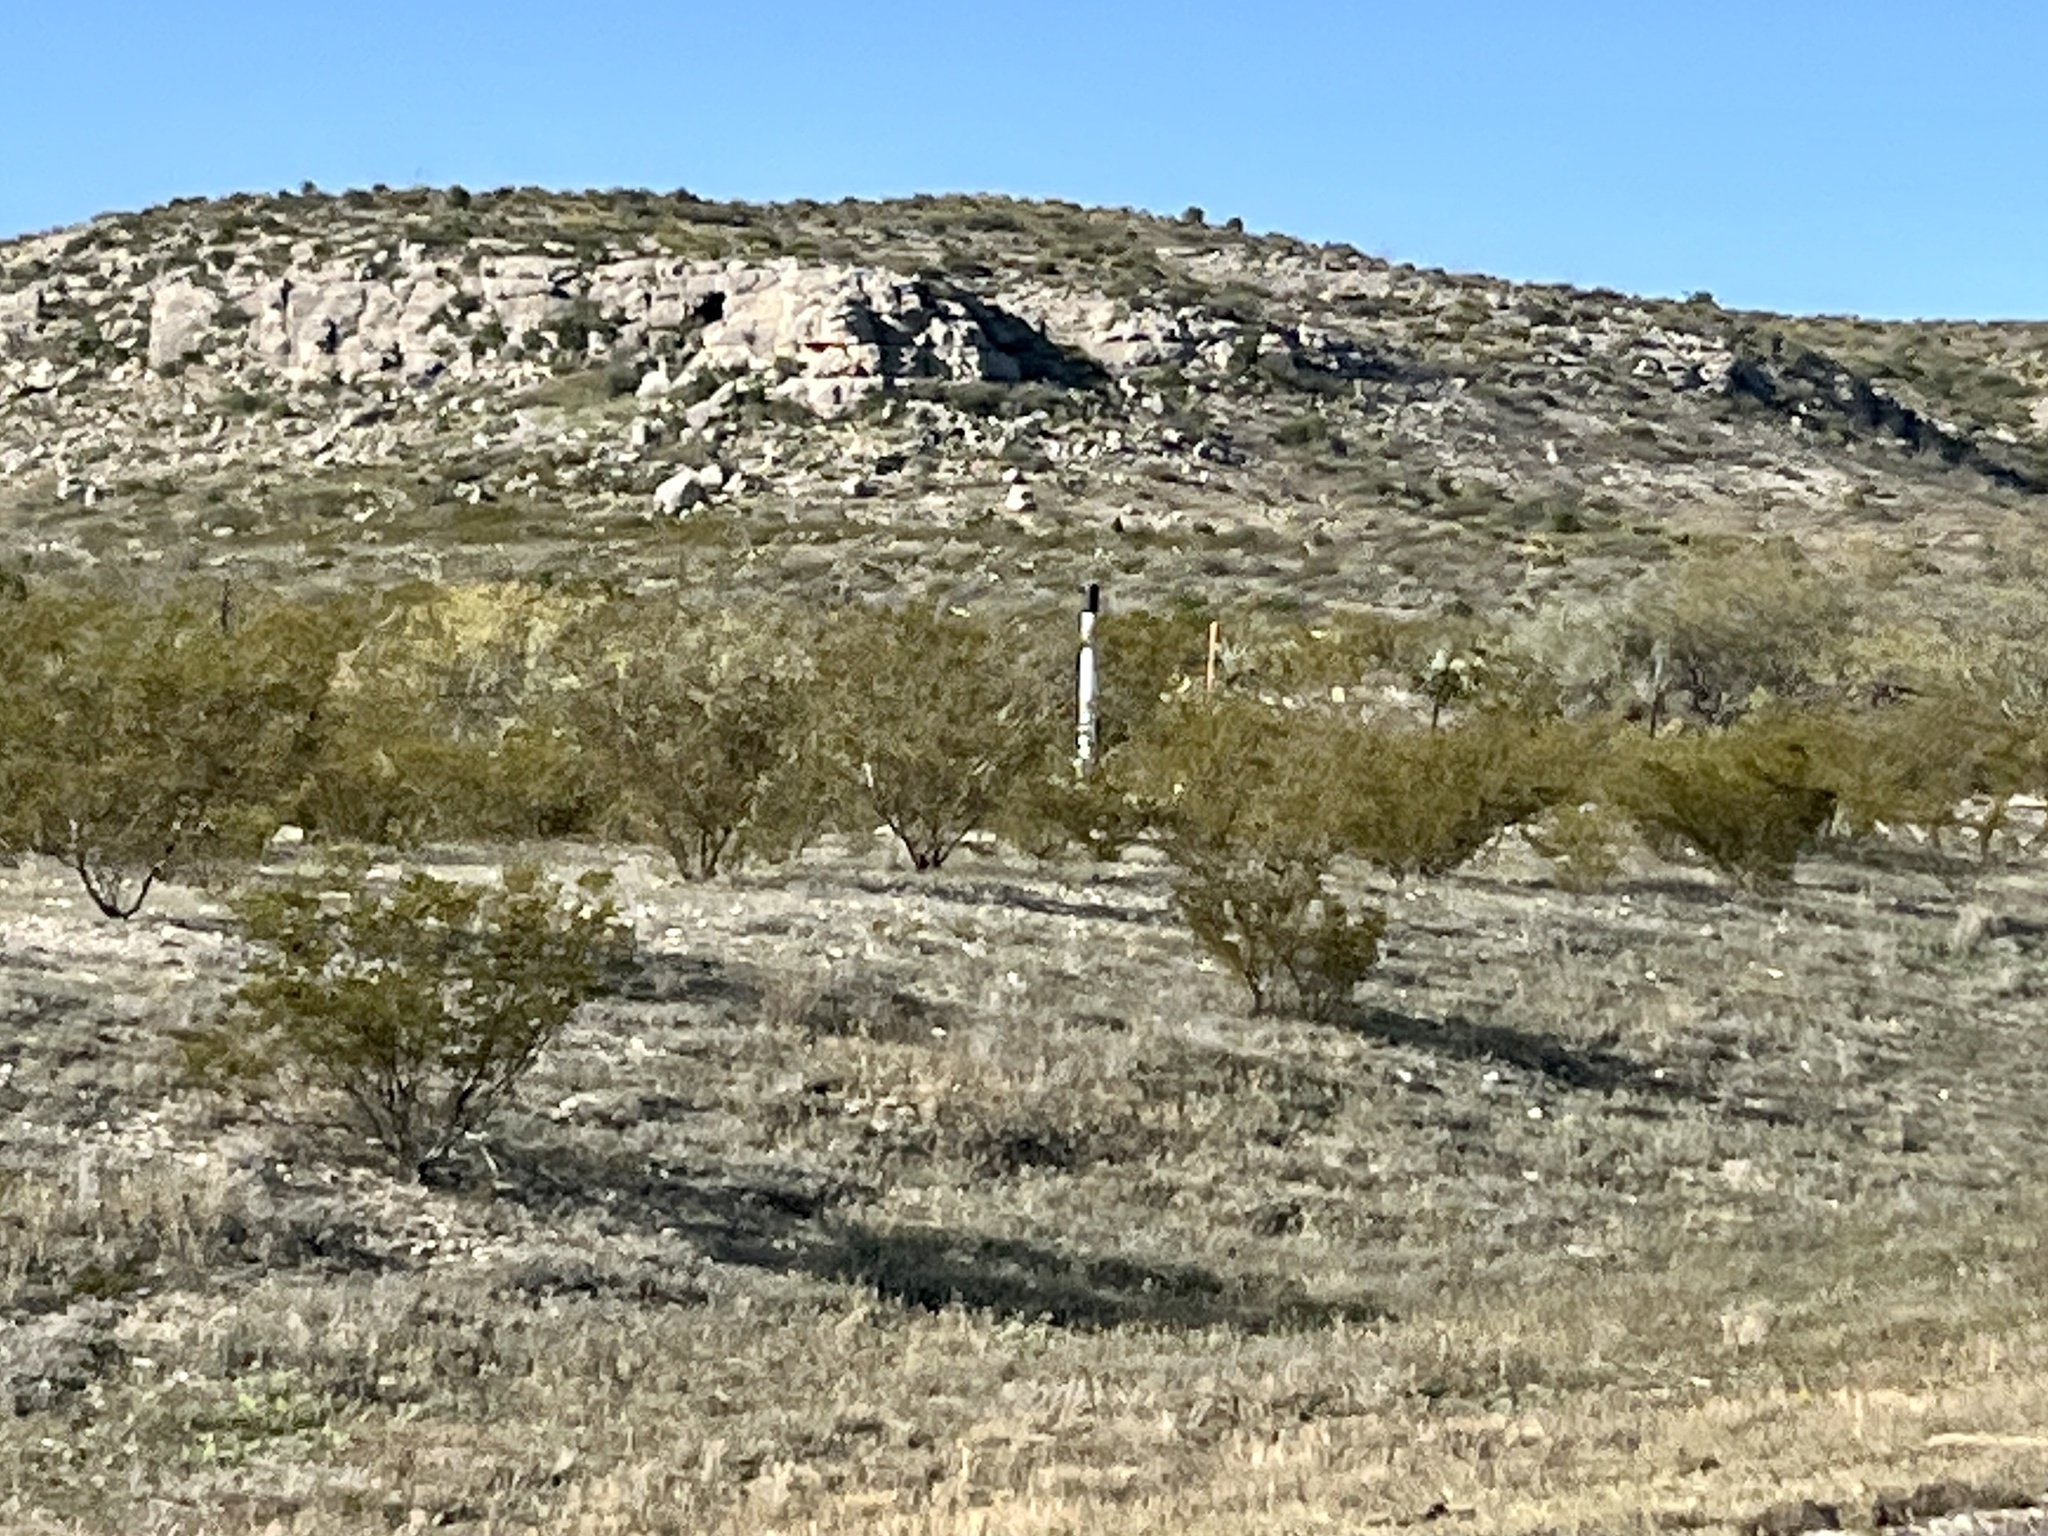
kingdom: Plantae
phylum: Tracheophyta
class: Magnoliopsida
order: Zygophyllales
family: Zygophyllaceae
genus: Larrea
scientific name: Larrea tridentata
